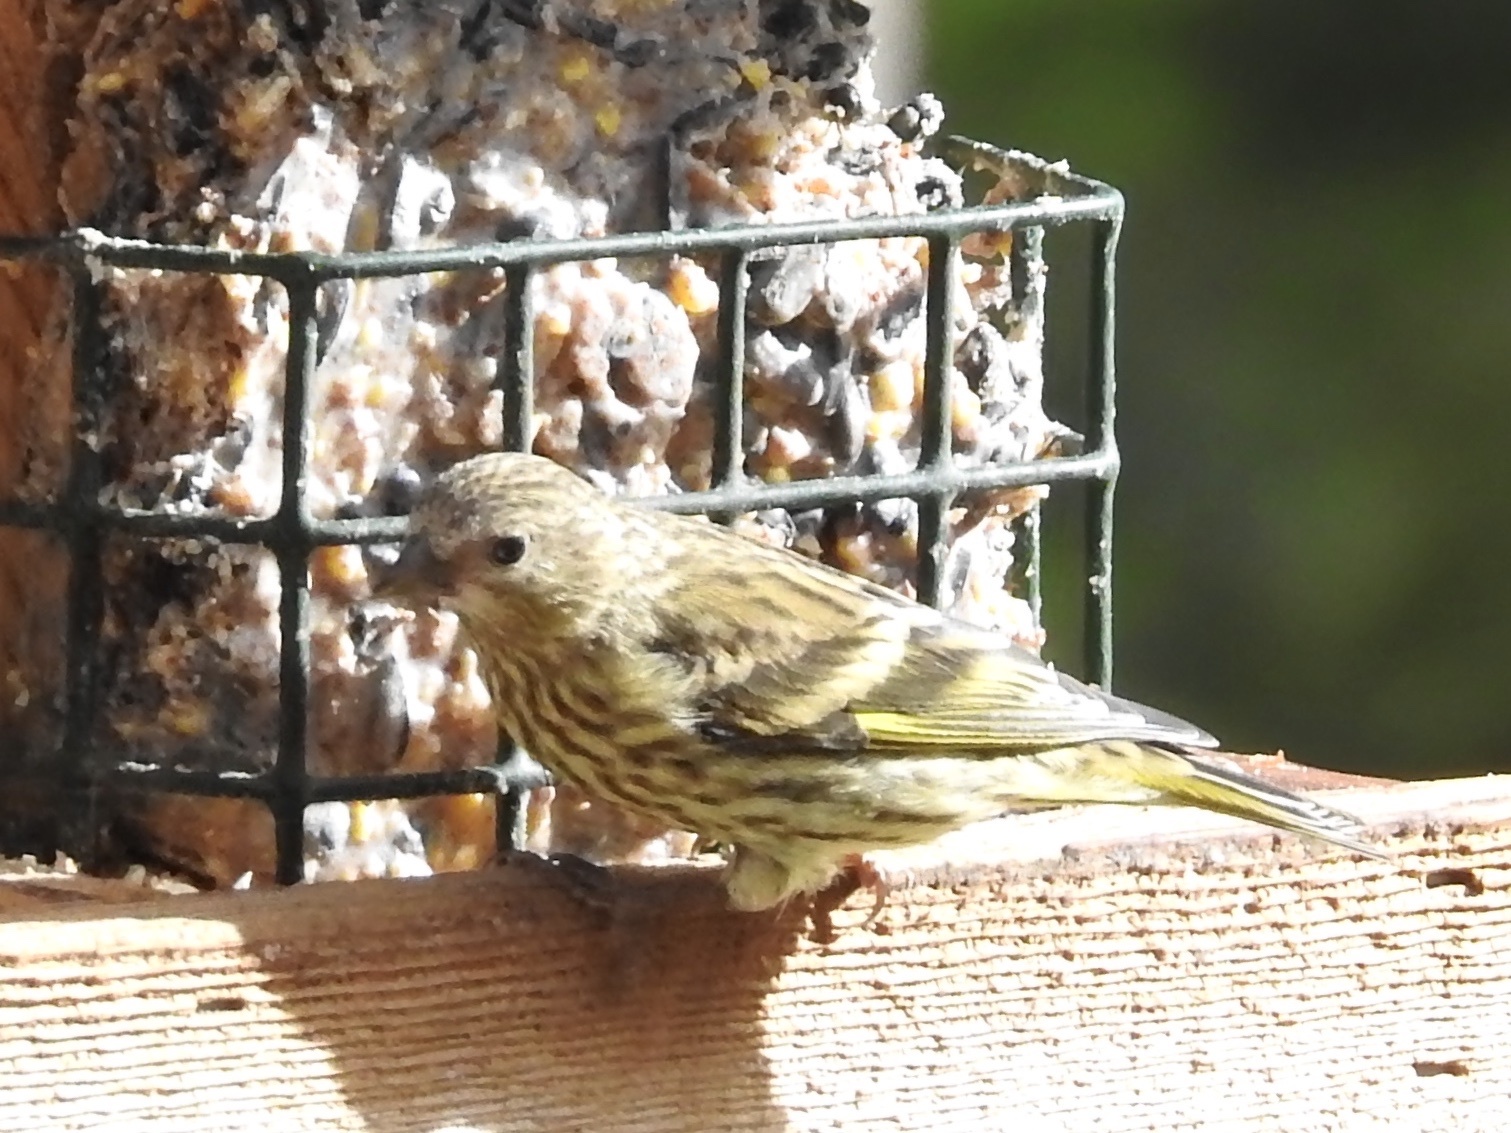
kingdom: Animalia
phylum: Chordata
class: Aves
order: Passeriformes
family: Fringillidae
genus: Spinus
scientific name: Spinus pinus
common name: Pine siskin
